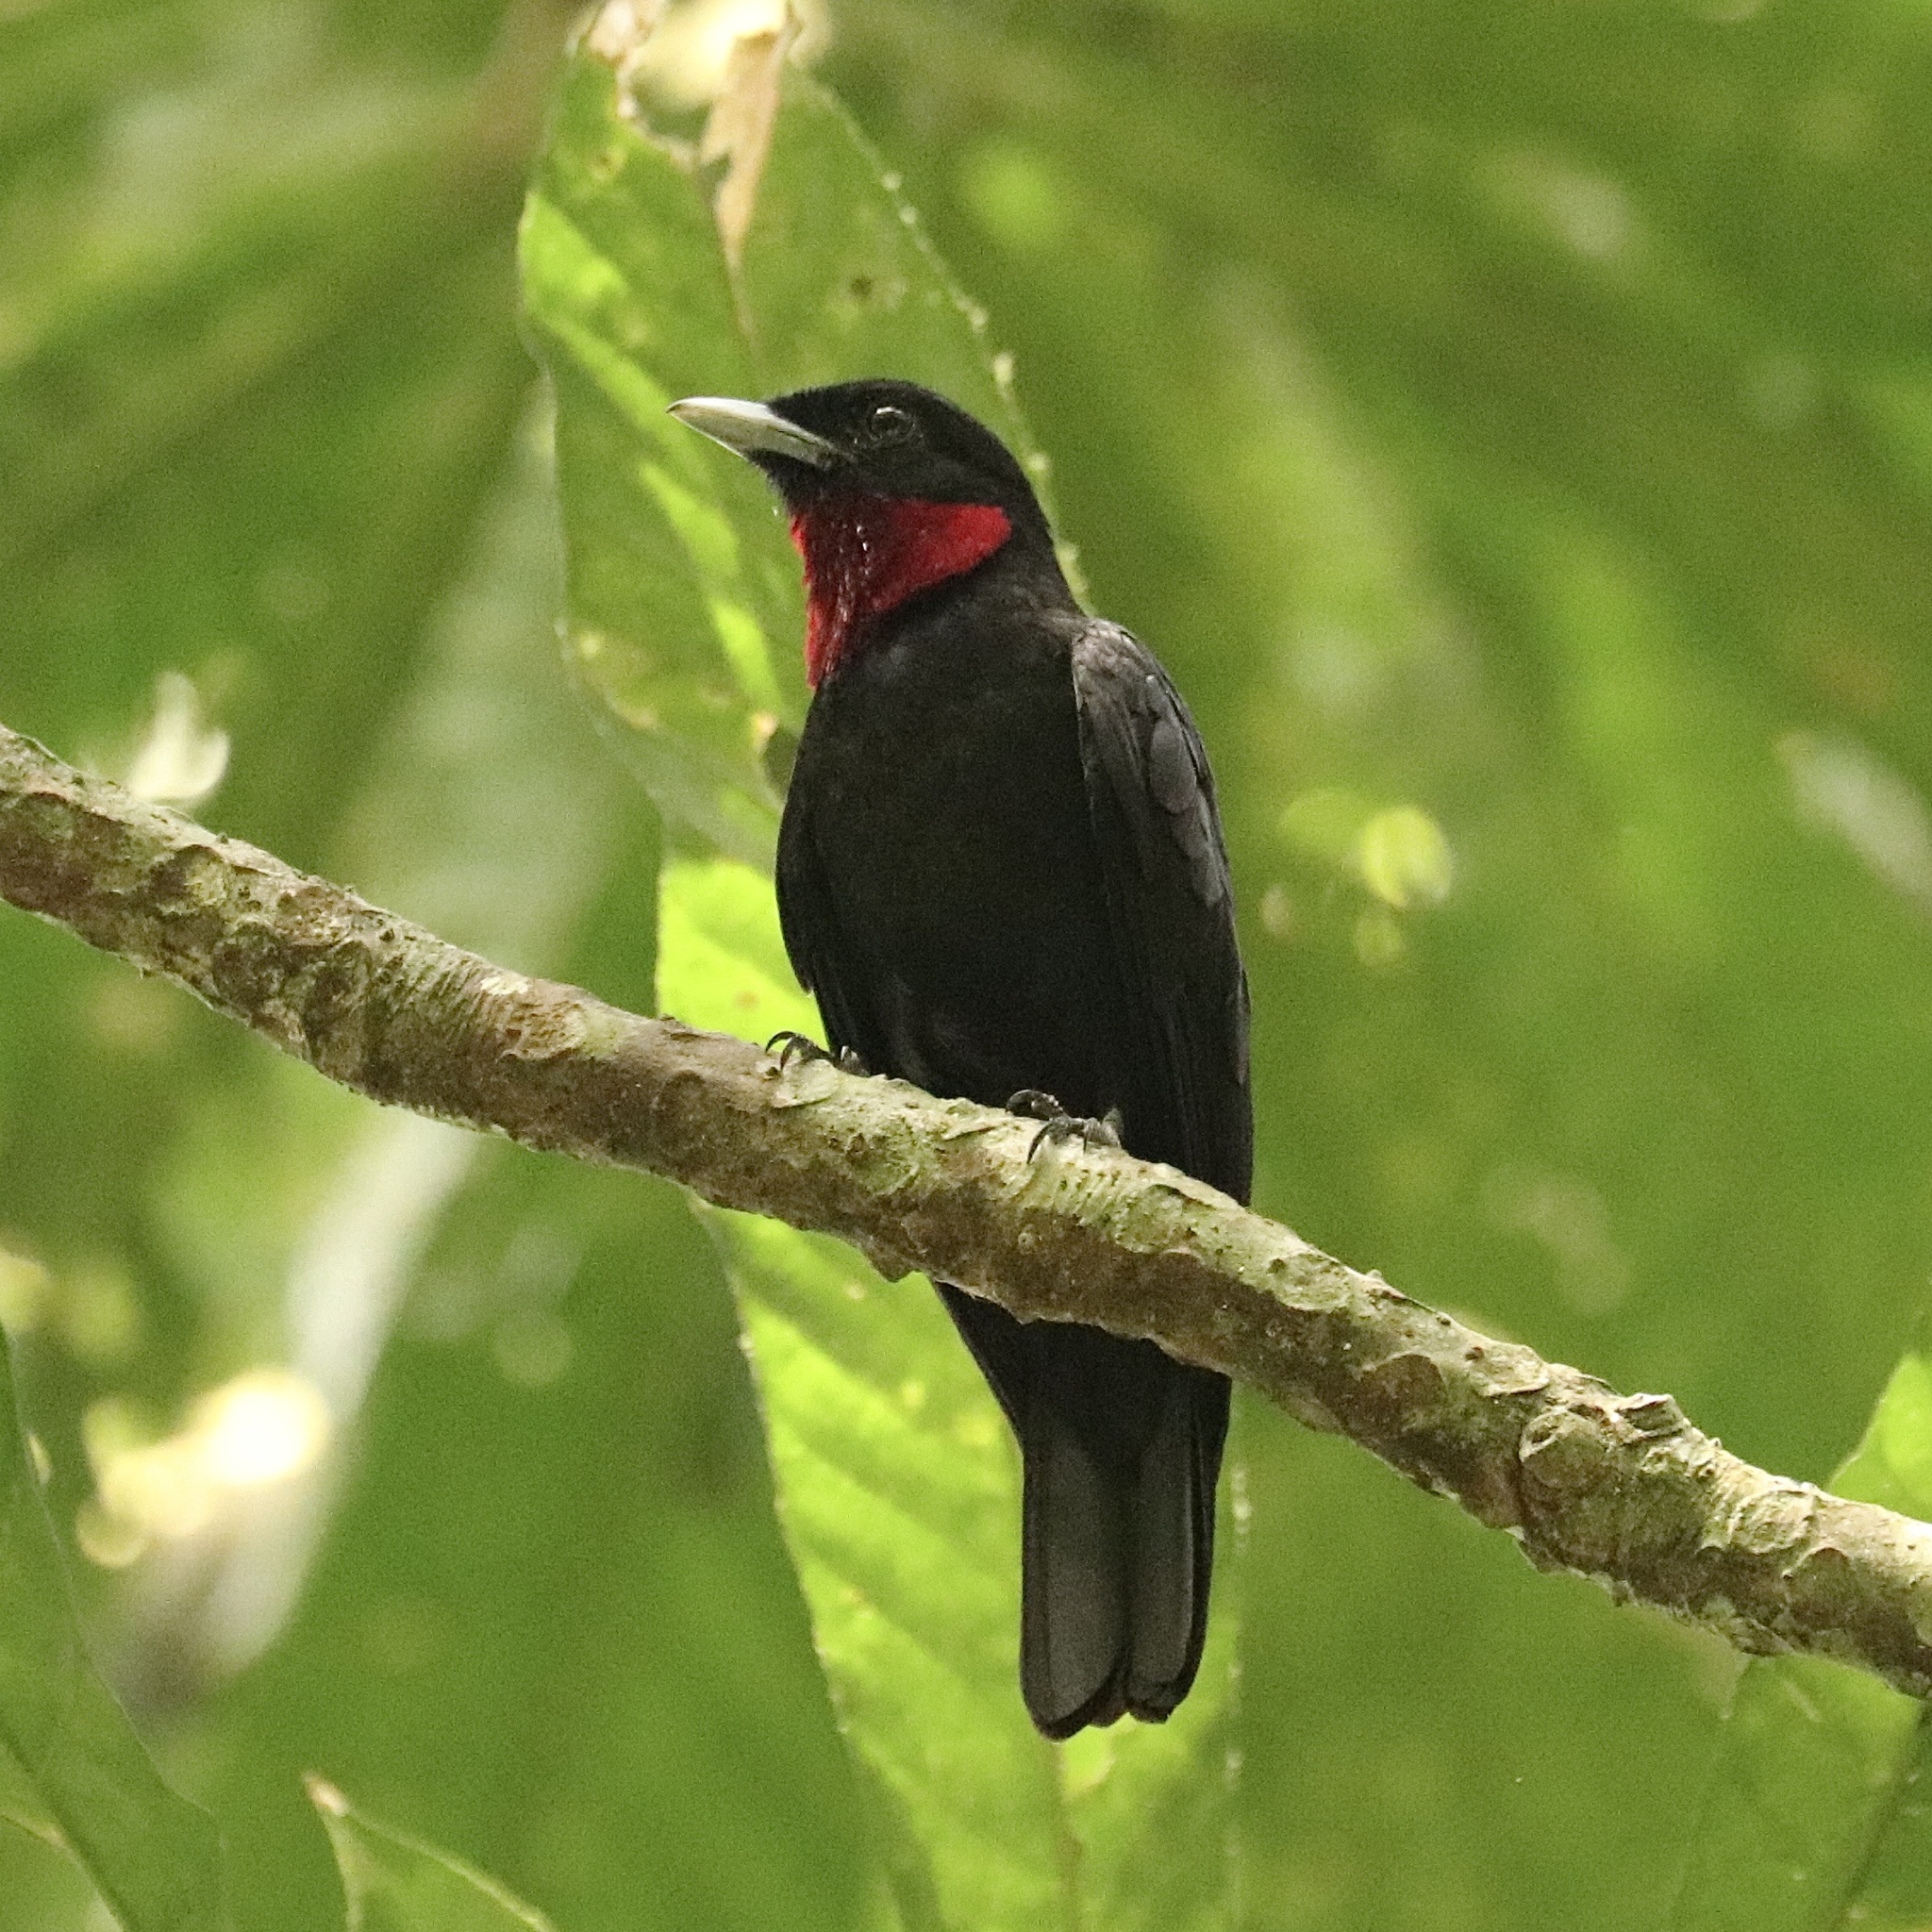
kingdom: Animalia
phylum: Chordata
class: Aves
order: Passeriformes
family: Cotingidae
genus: Querula
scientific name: Querula purpurata
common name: Purple-throated fruitcrow
